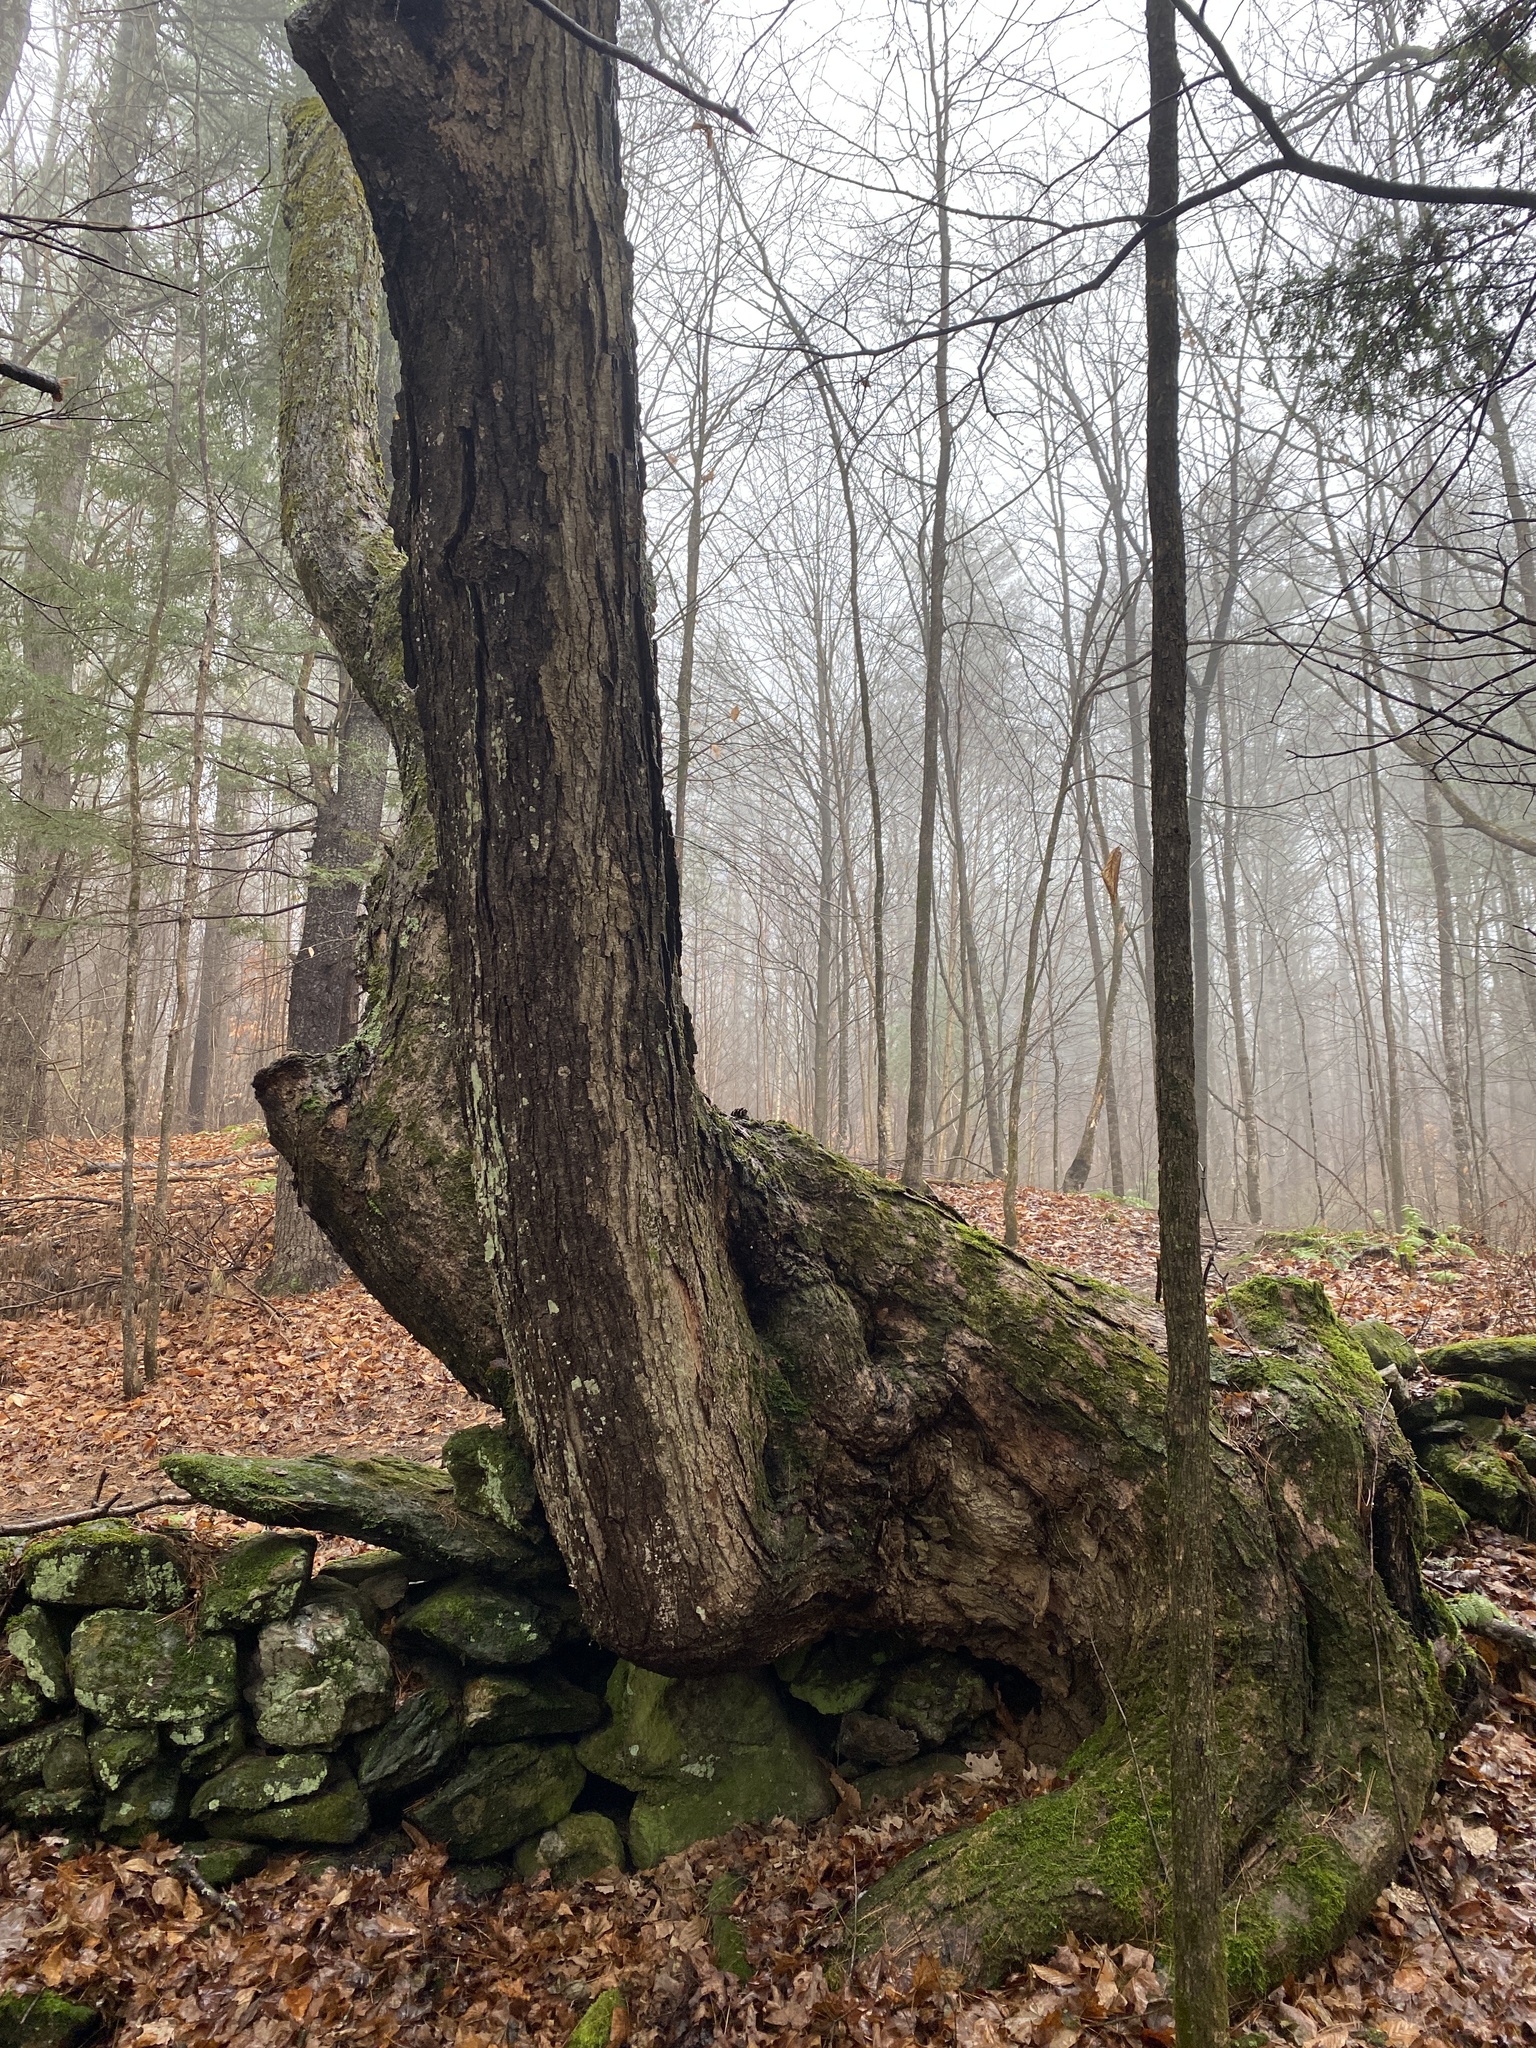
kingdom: Plantae
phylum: Tracheophyta
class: Magnoliopsida
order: Sapindales
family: Sapindaceae
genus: Acer
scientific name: Acer saccharum
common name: Sugar maple
